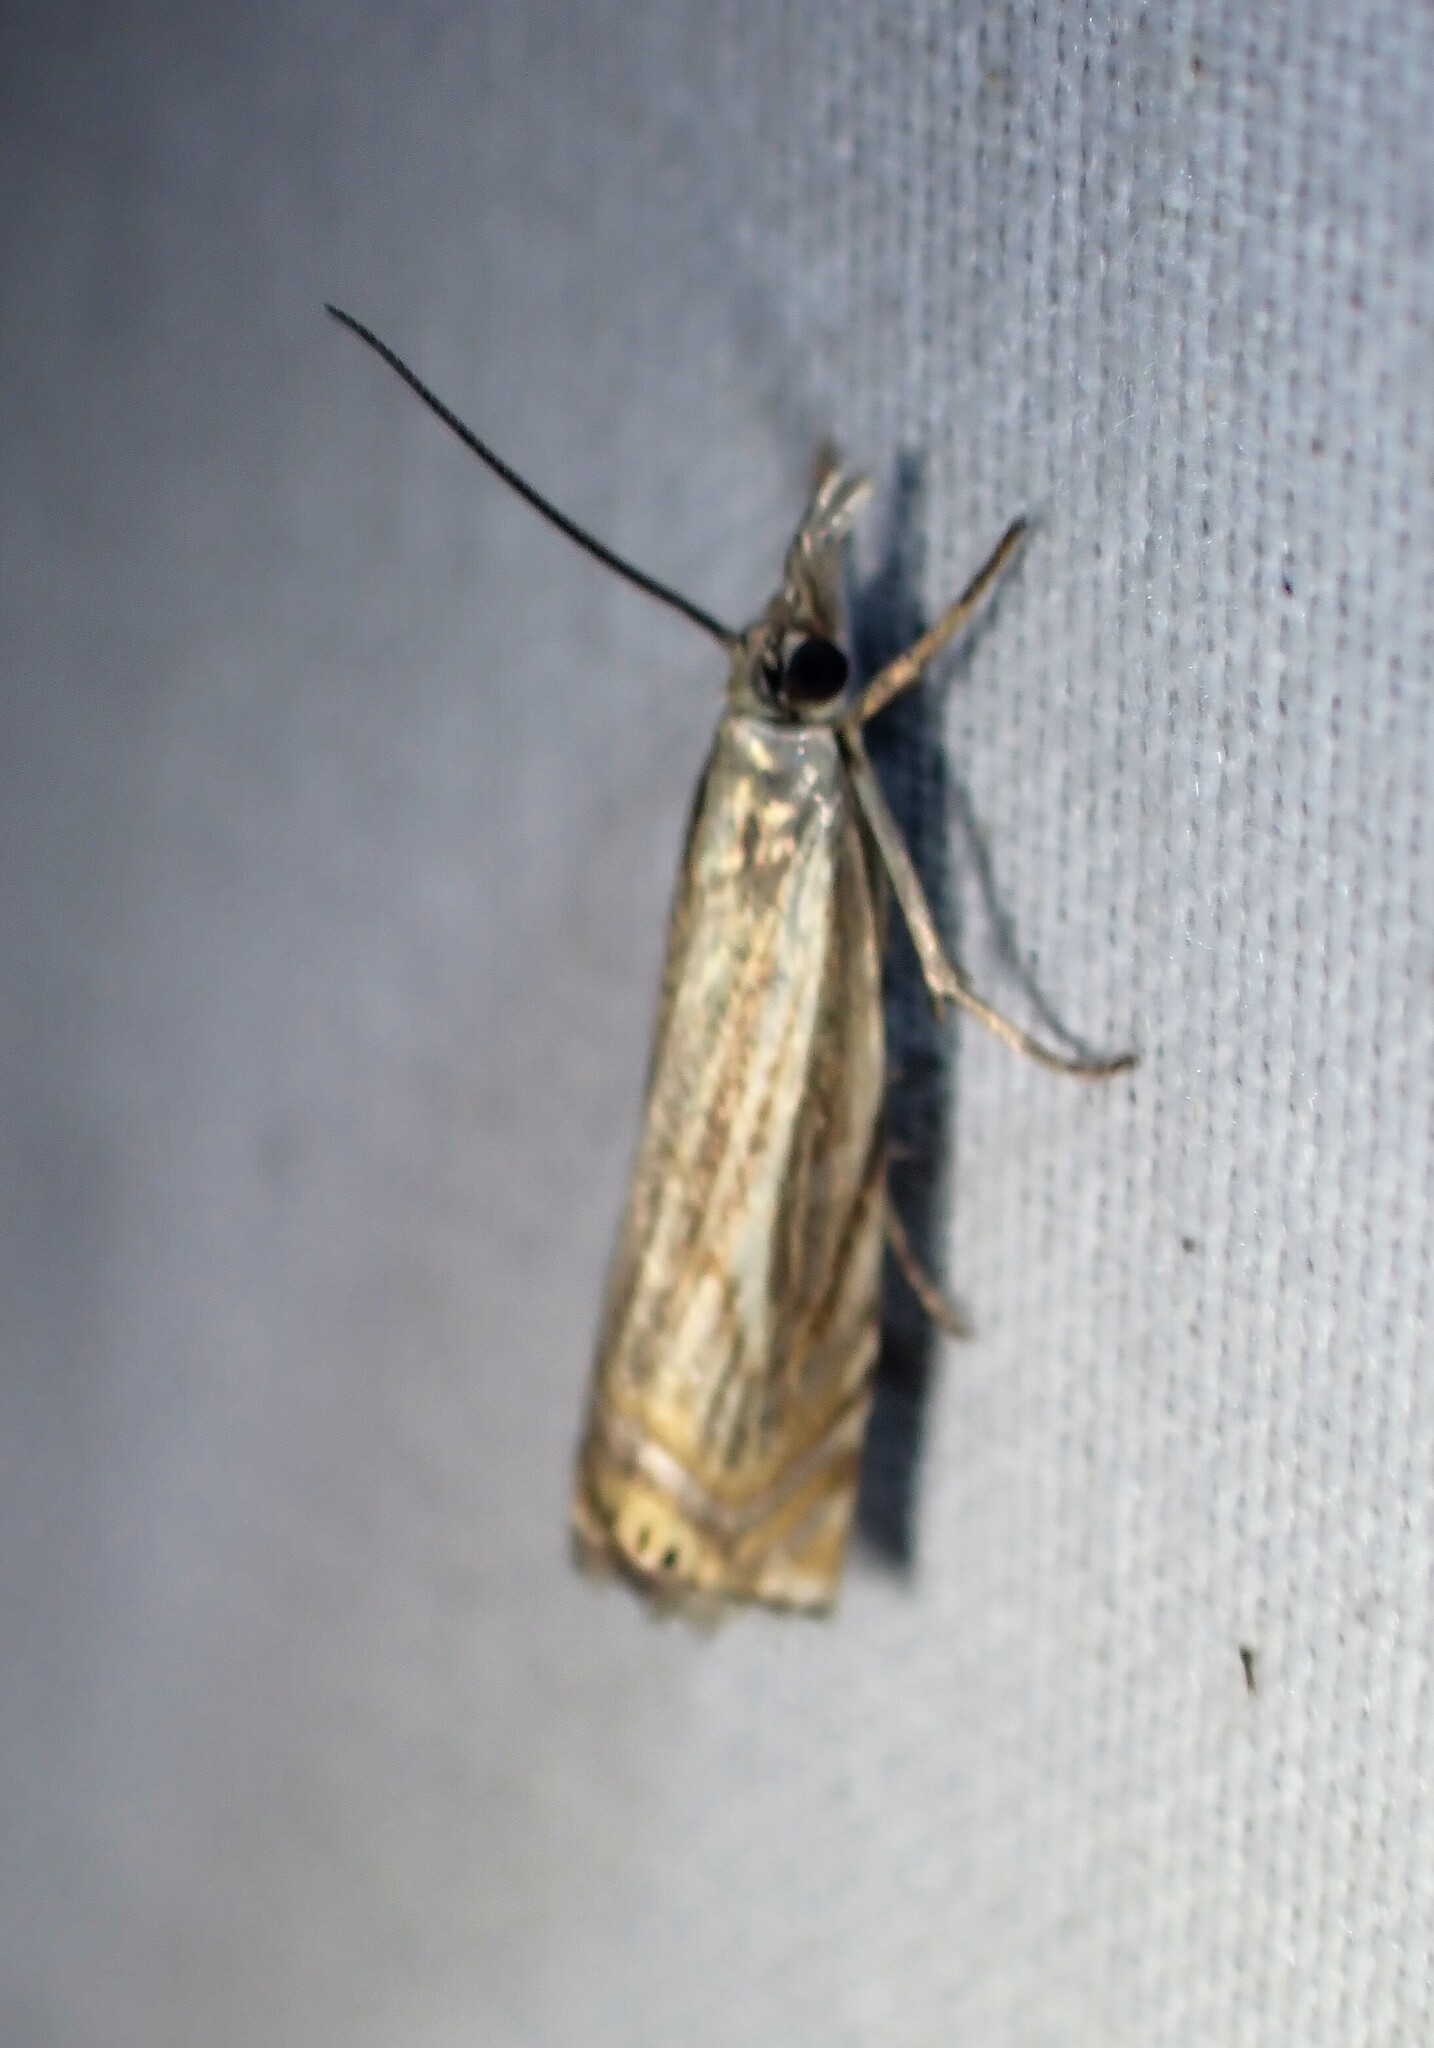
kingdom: Animalia
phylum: Arthropoda
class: Insecta
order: Lepidoptera
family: Crambidae
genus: Chrysoteuchia
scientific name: Chrysoteuchia topiarius
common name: Topiary grass-veneer
